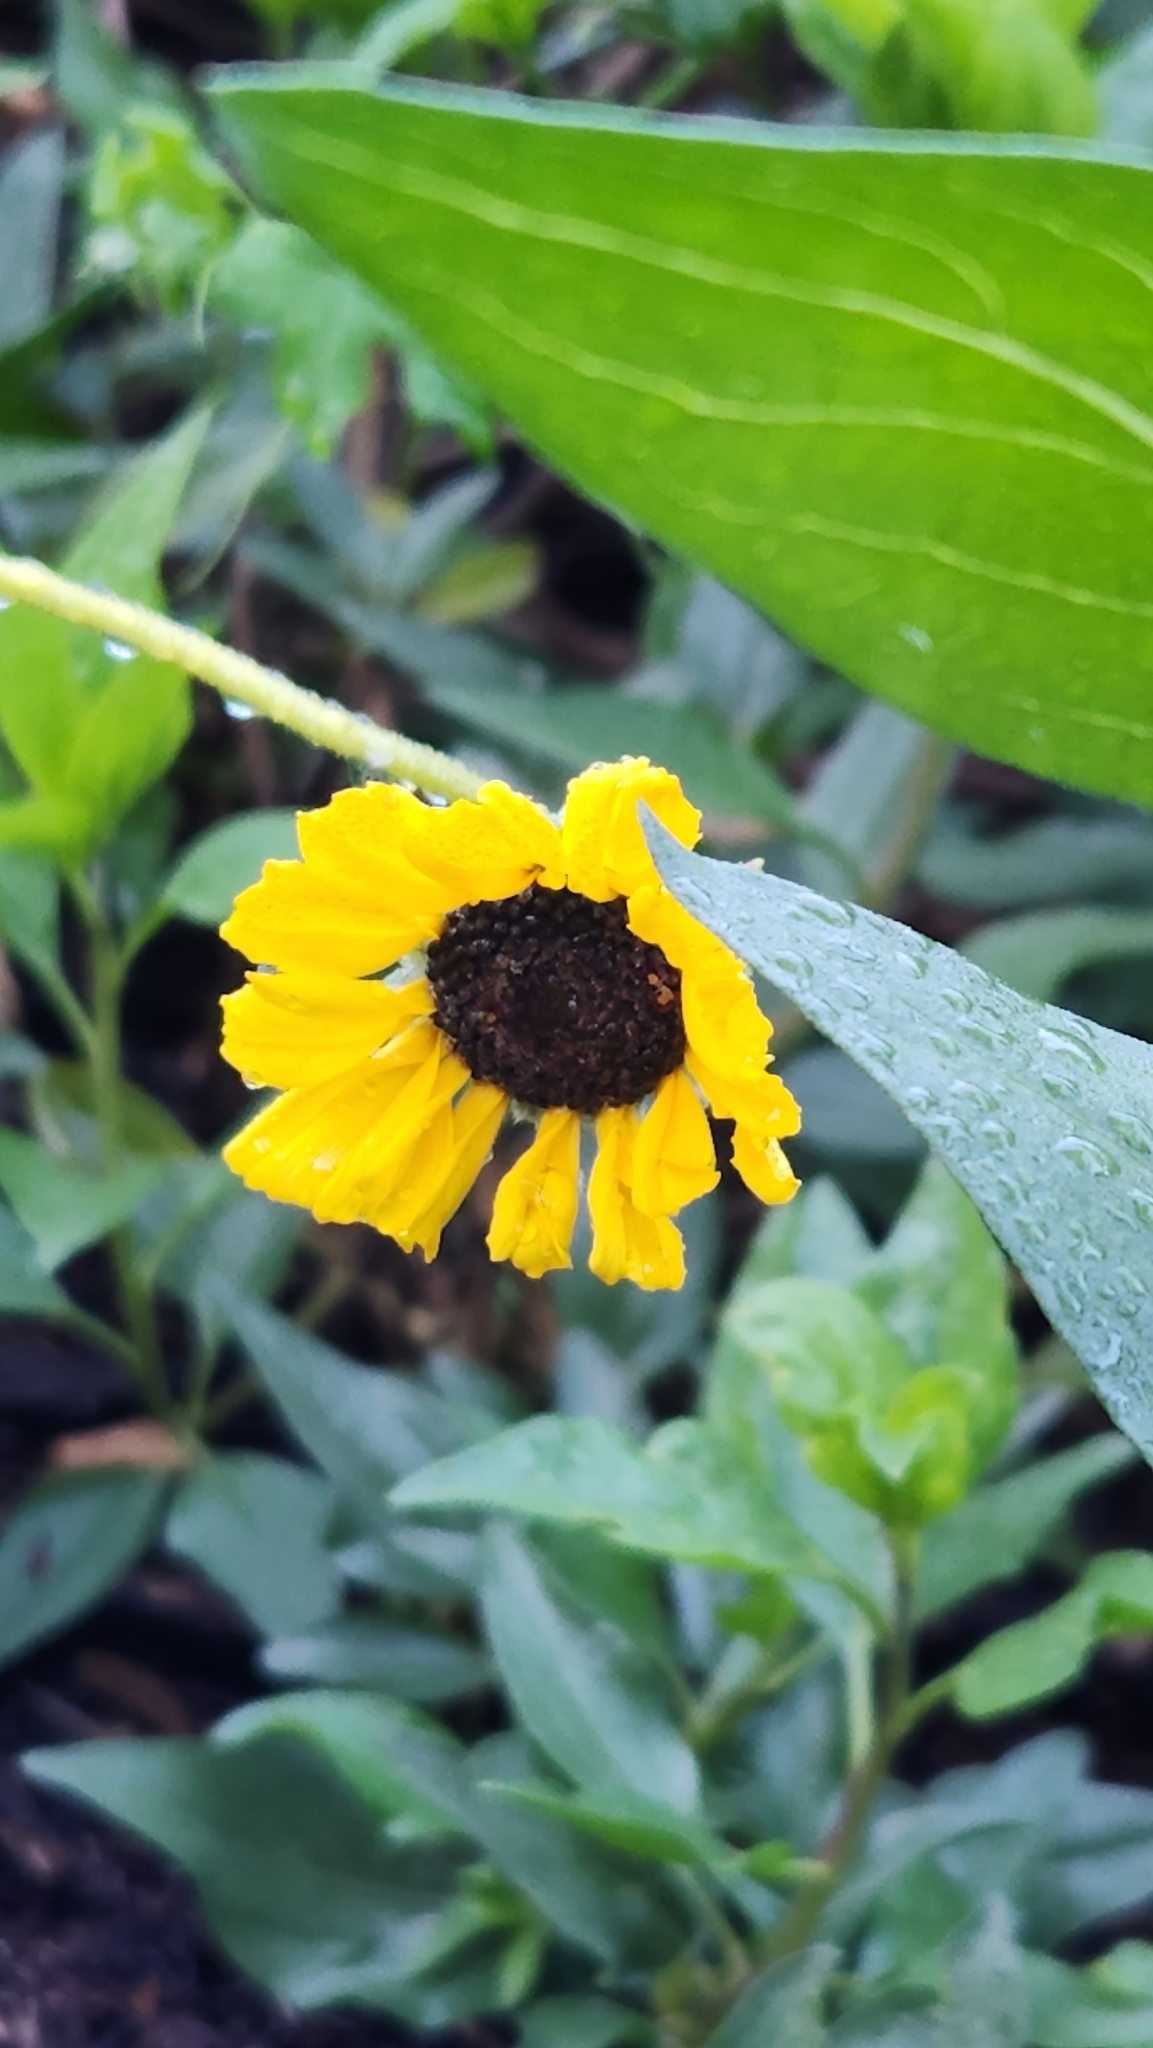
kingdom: Plantae
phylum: Tracheophyta
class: Magnoliopsida
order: Asterales
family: Asteraceae
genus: Encelia
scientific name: Encelia californica
